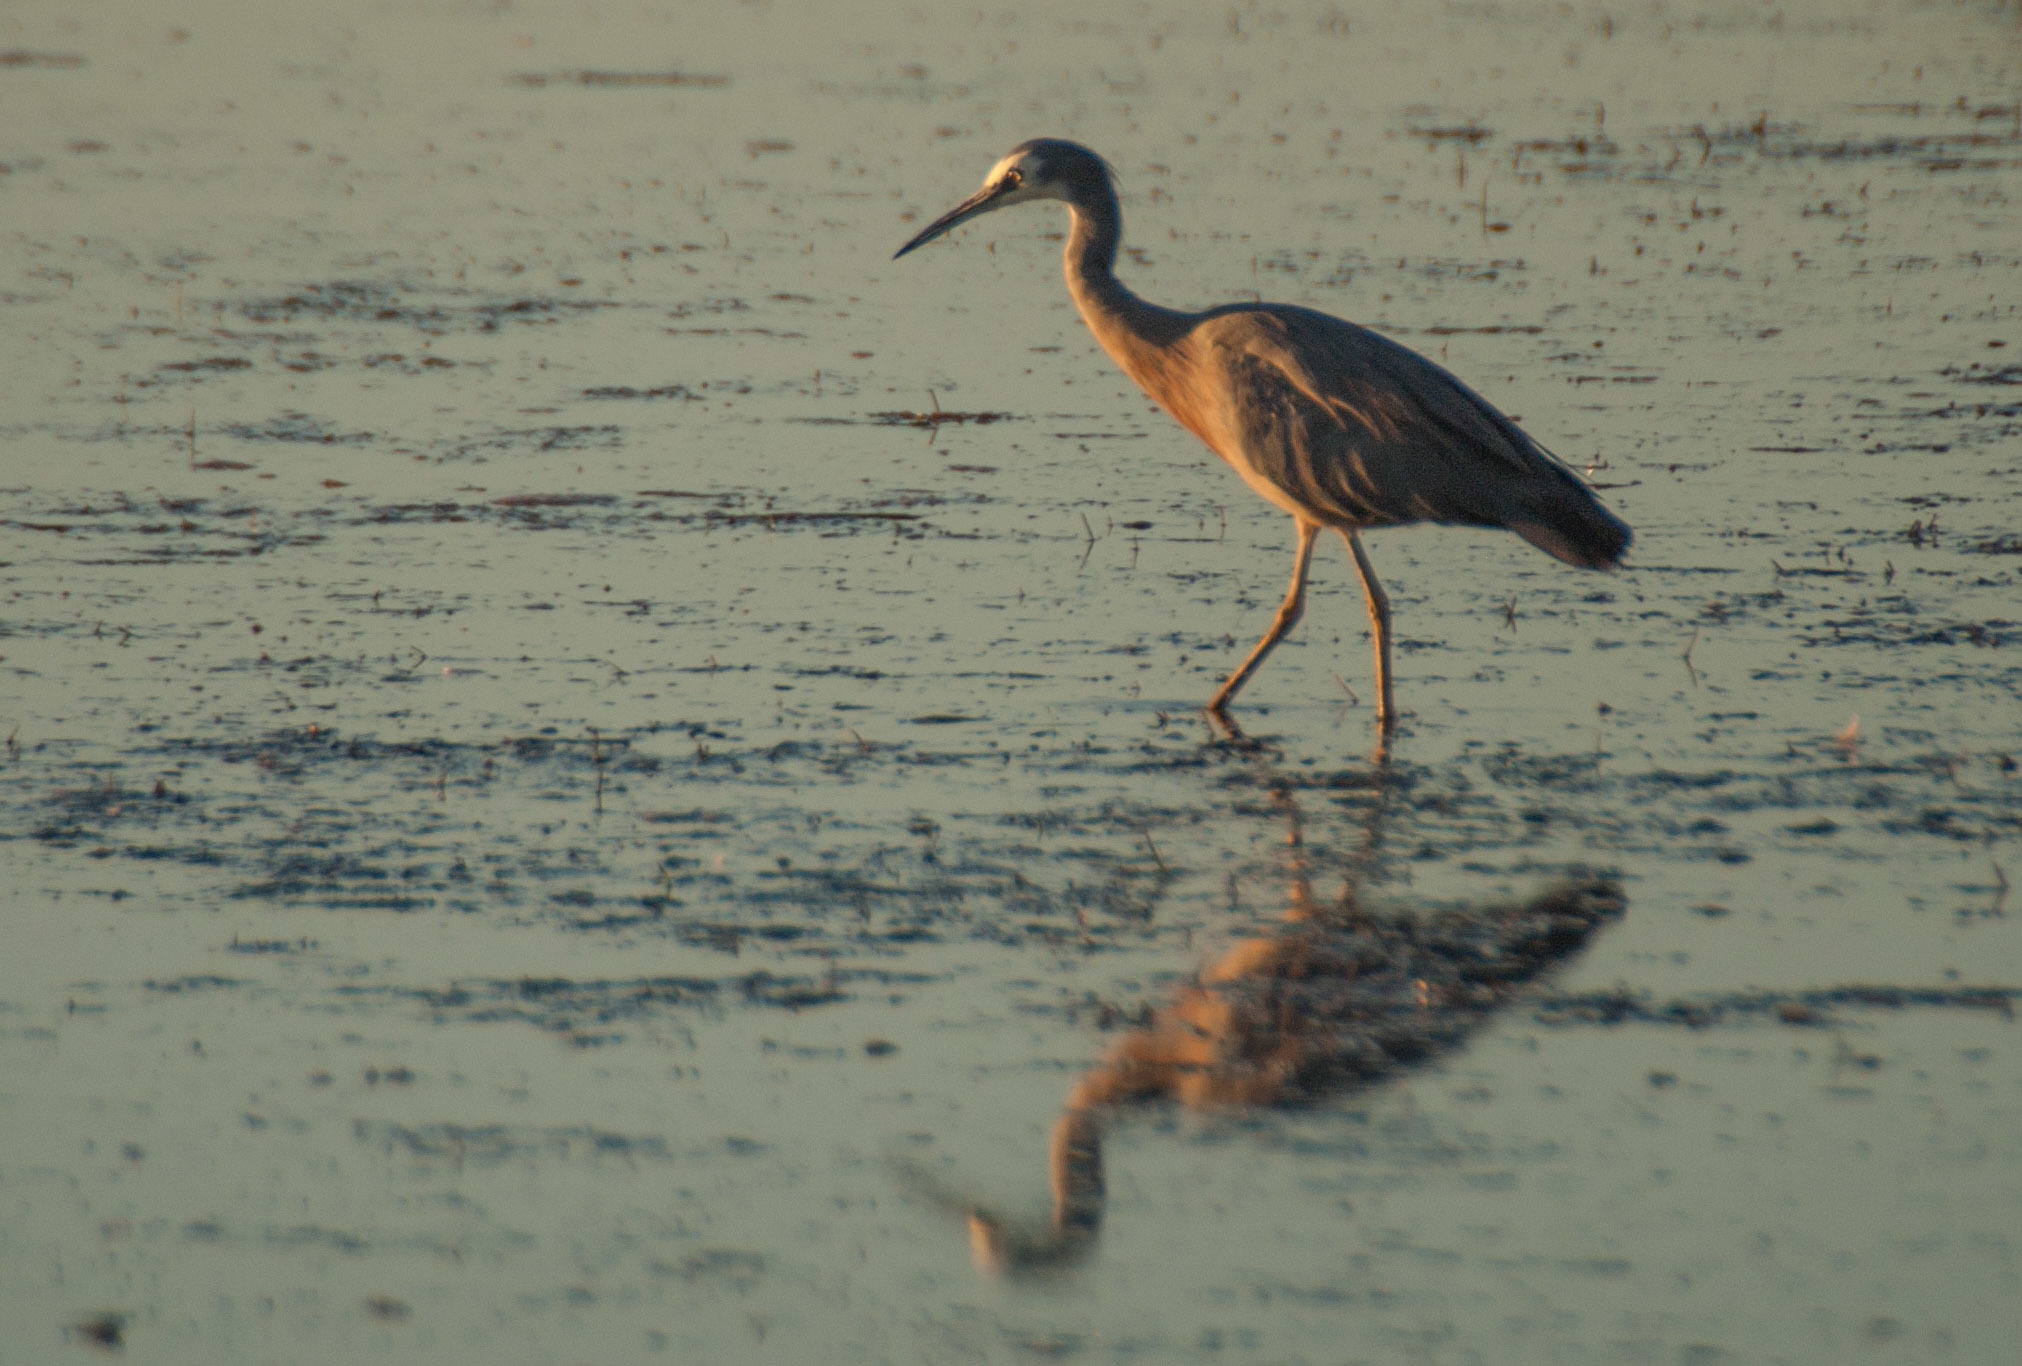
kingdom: Animalia
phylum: Chordata
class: Aves
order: Pelecaniformes
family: Ardeidae
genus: Egretta
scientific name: Egretta novaehollandiae
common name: White-faced heron
